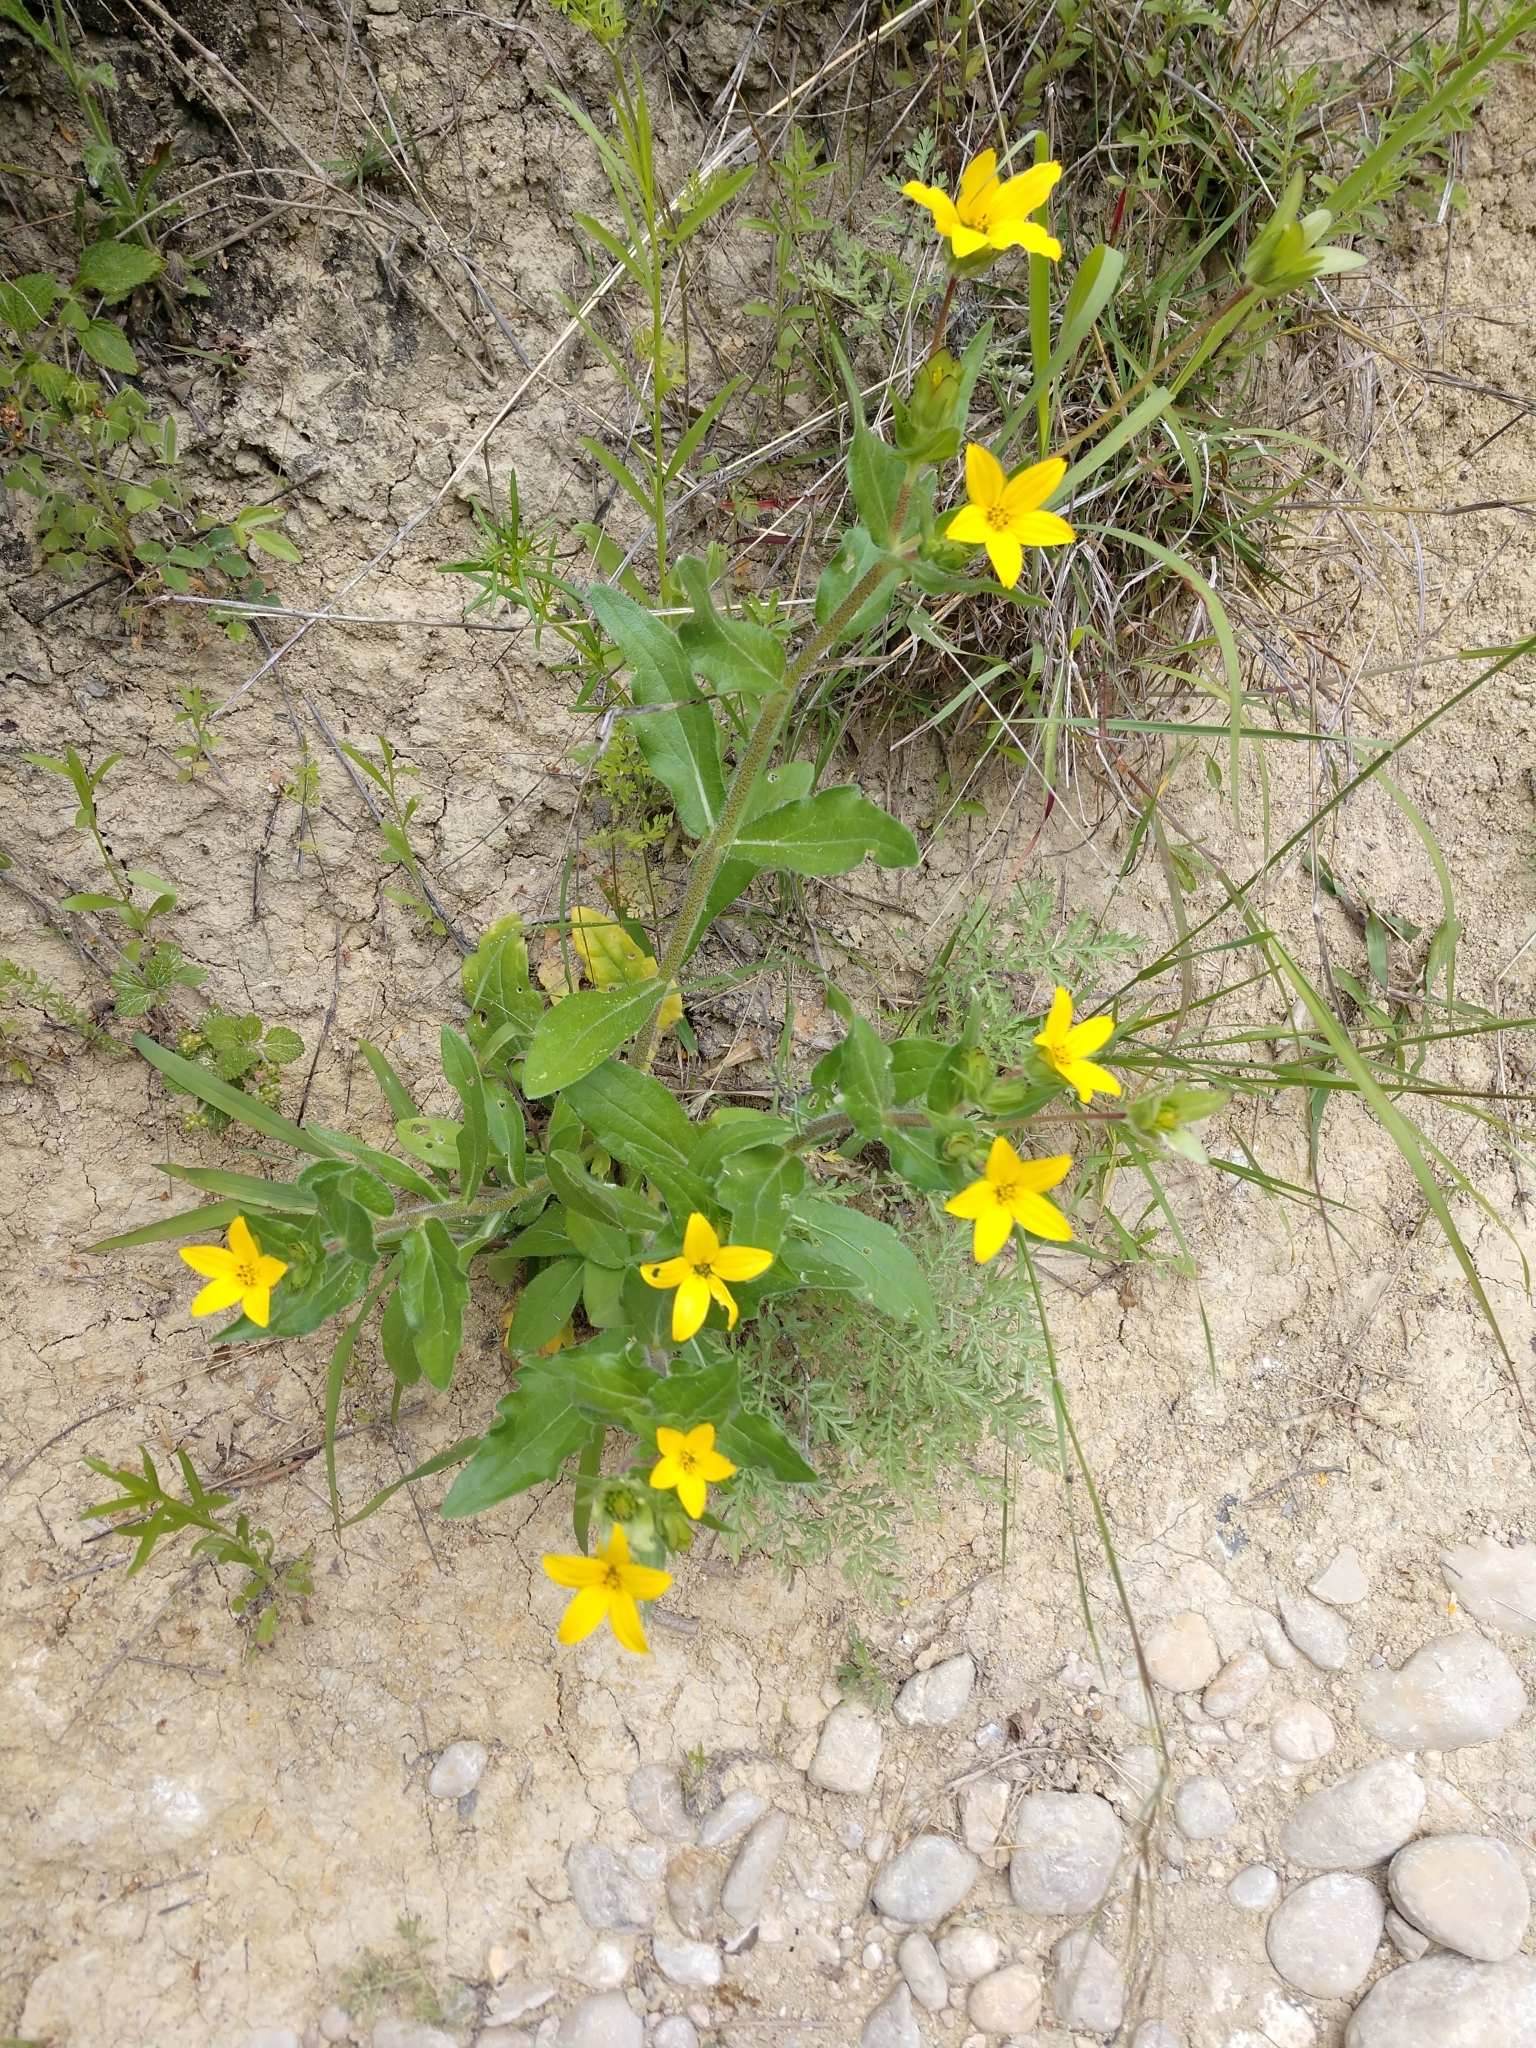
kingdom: Plantae
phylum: Tracheophyta
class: Magnoliopsida
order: Asterales
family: Asteraceae
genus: Lindheimera
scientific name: Lindheimera texana
